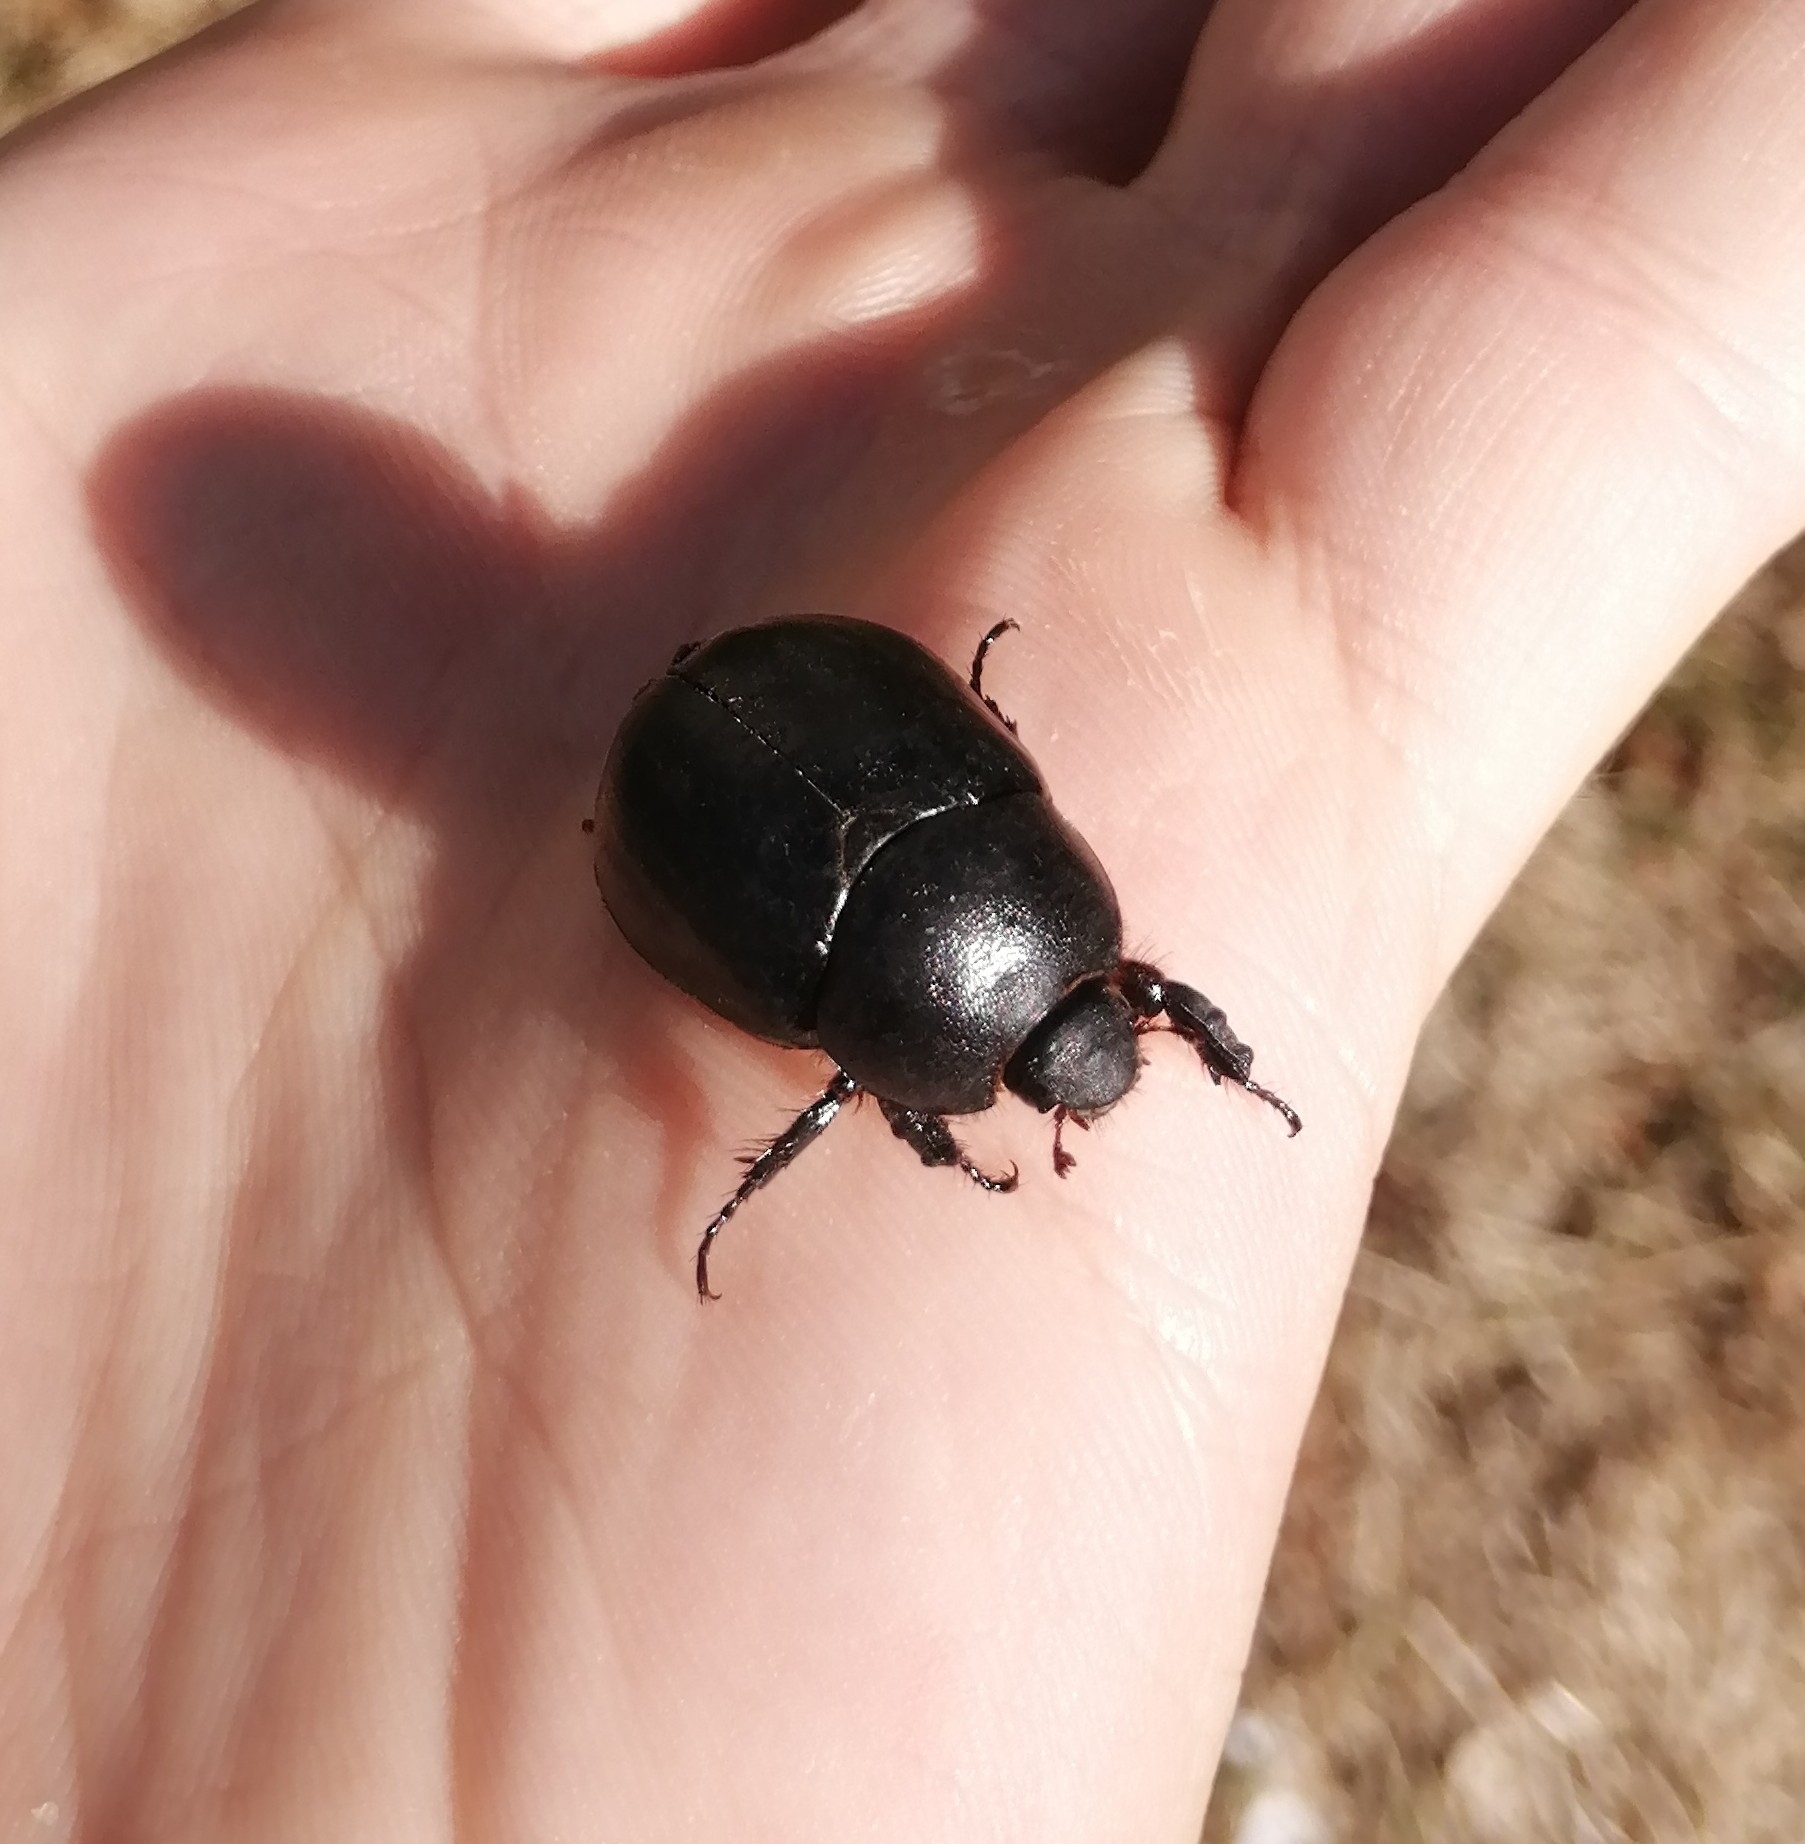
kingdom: Animalia
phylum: Arthropoda
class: Insecta
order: Coleoptera
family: Scarabaeidae
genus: Pentodon
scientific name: Pentodon idiota
